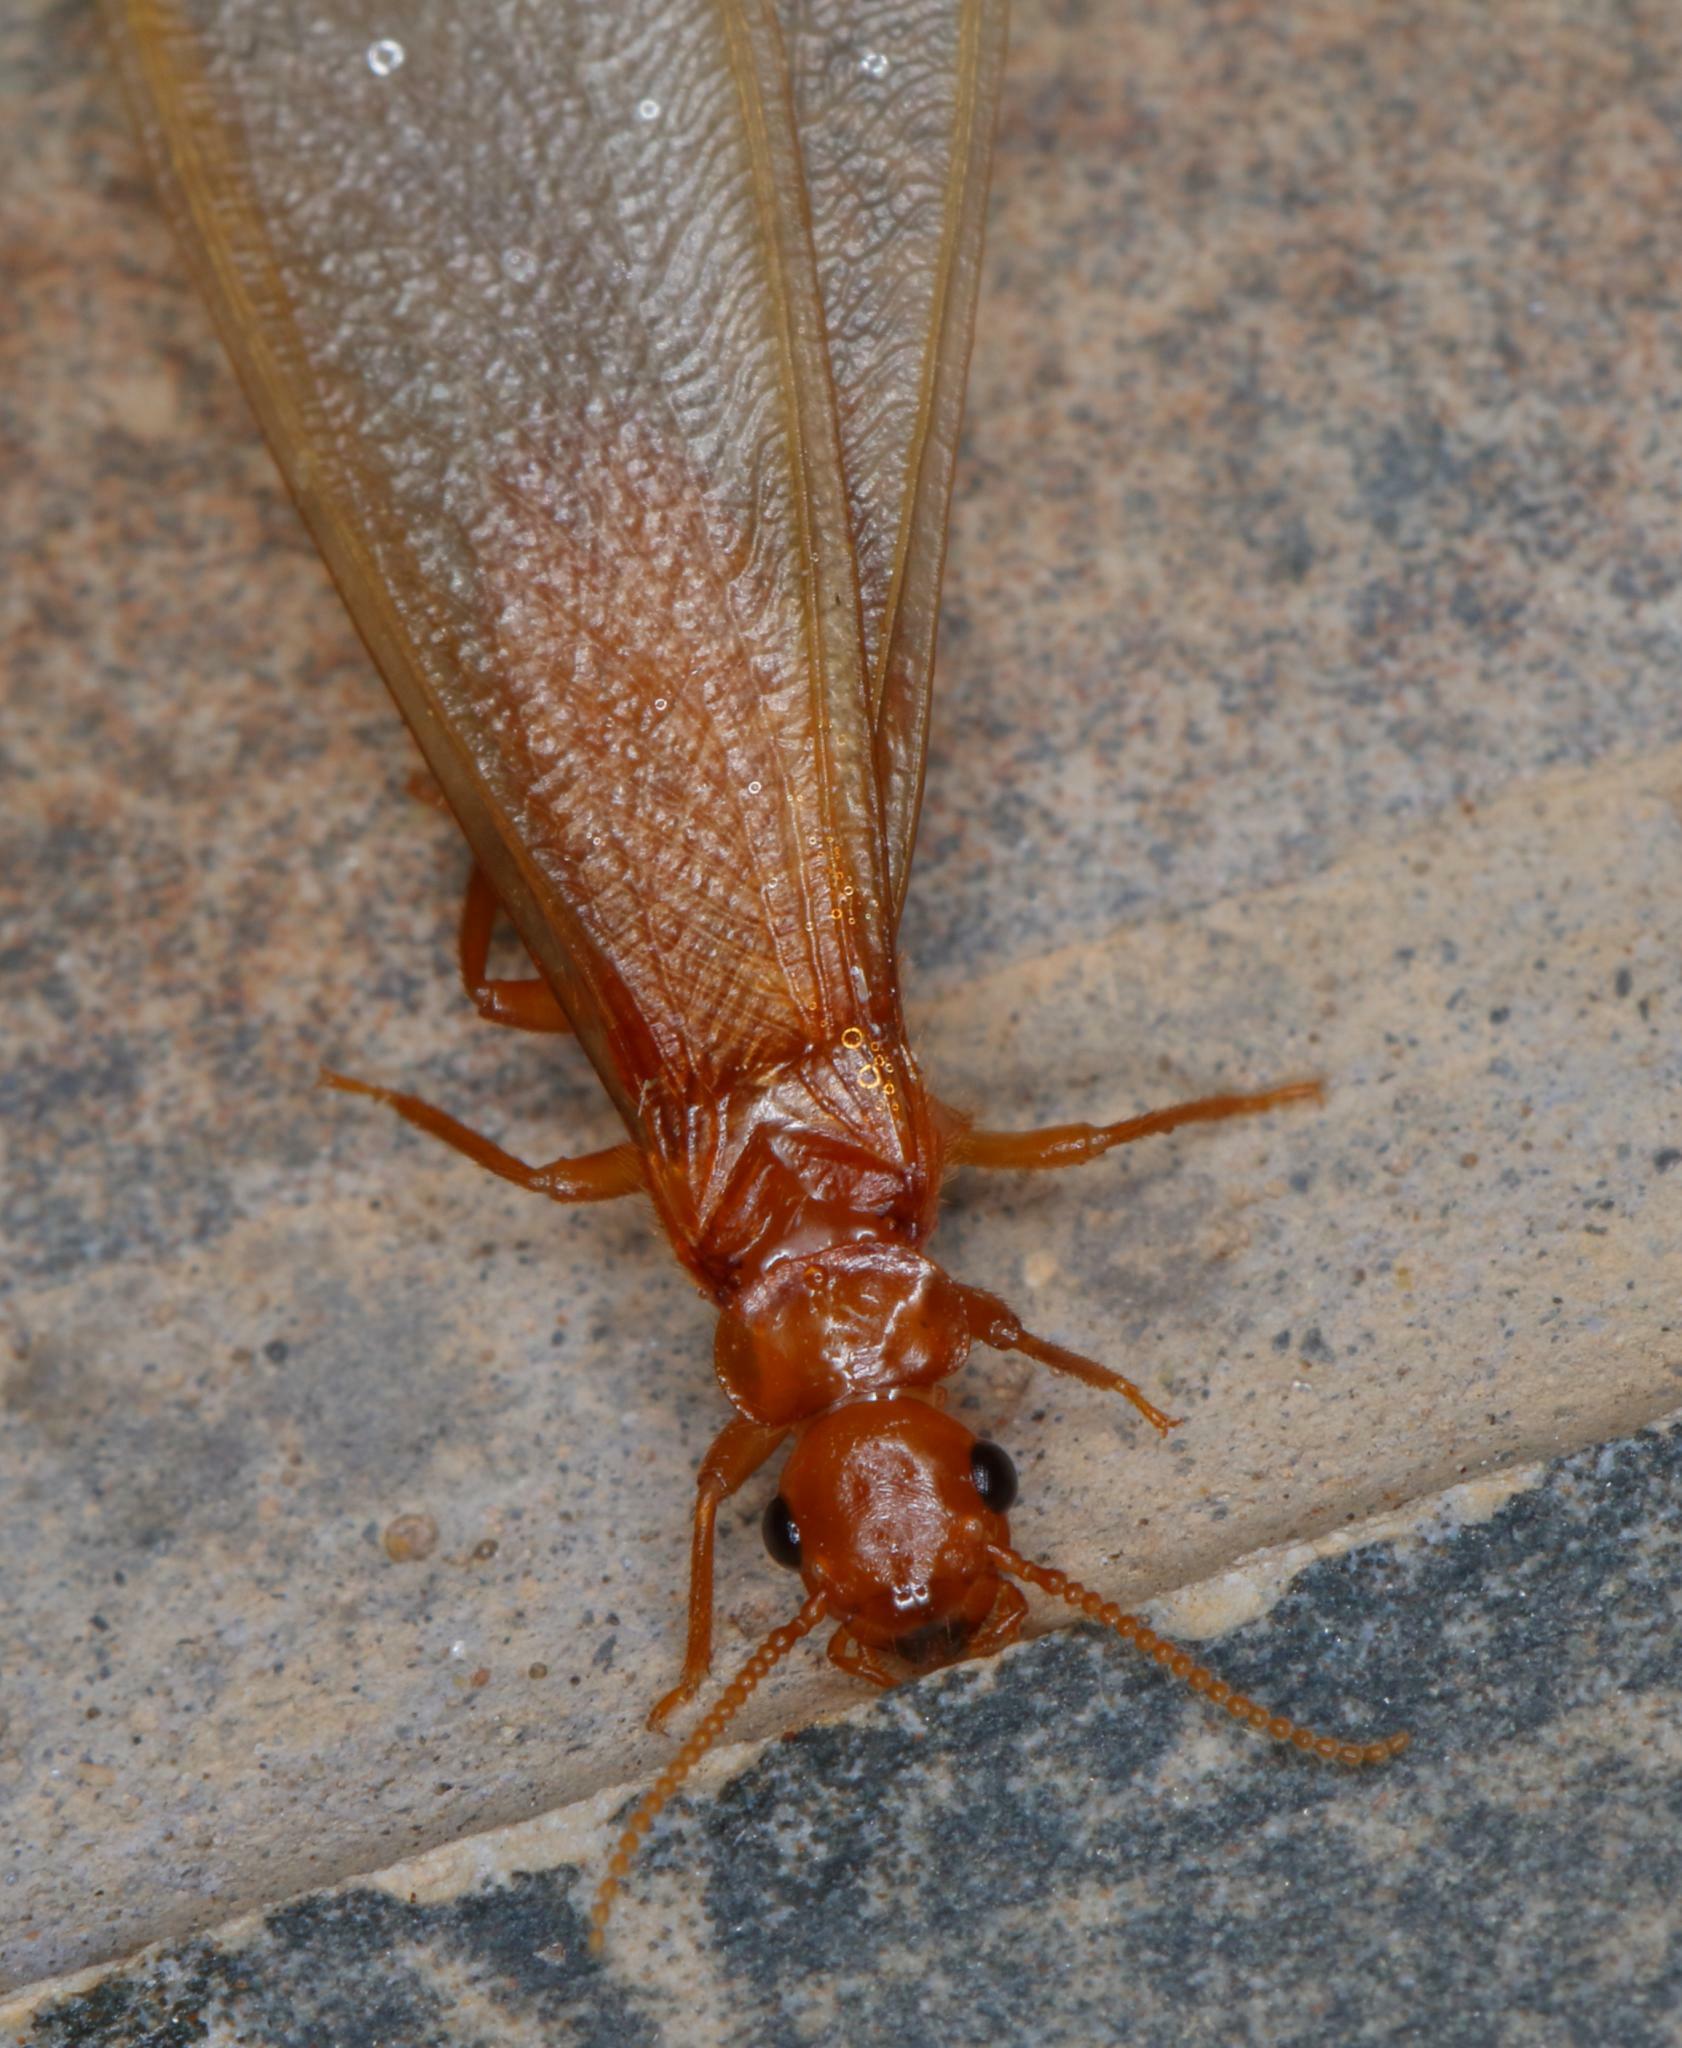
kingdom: Animalia
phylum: Arthropoda
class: Insecta
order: Blattodea
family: Rhinotermitidae
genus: Schedorhinotermes
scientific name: Schedorhinotermes lamanianus
